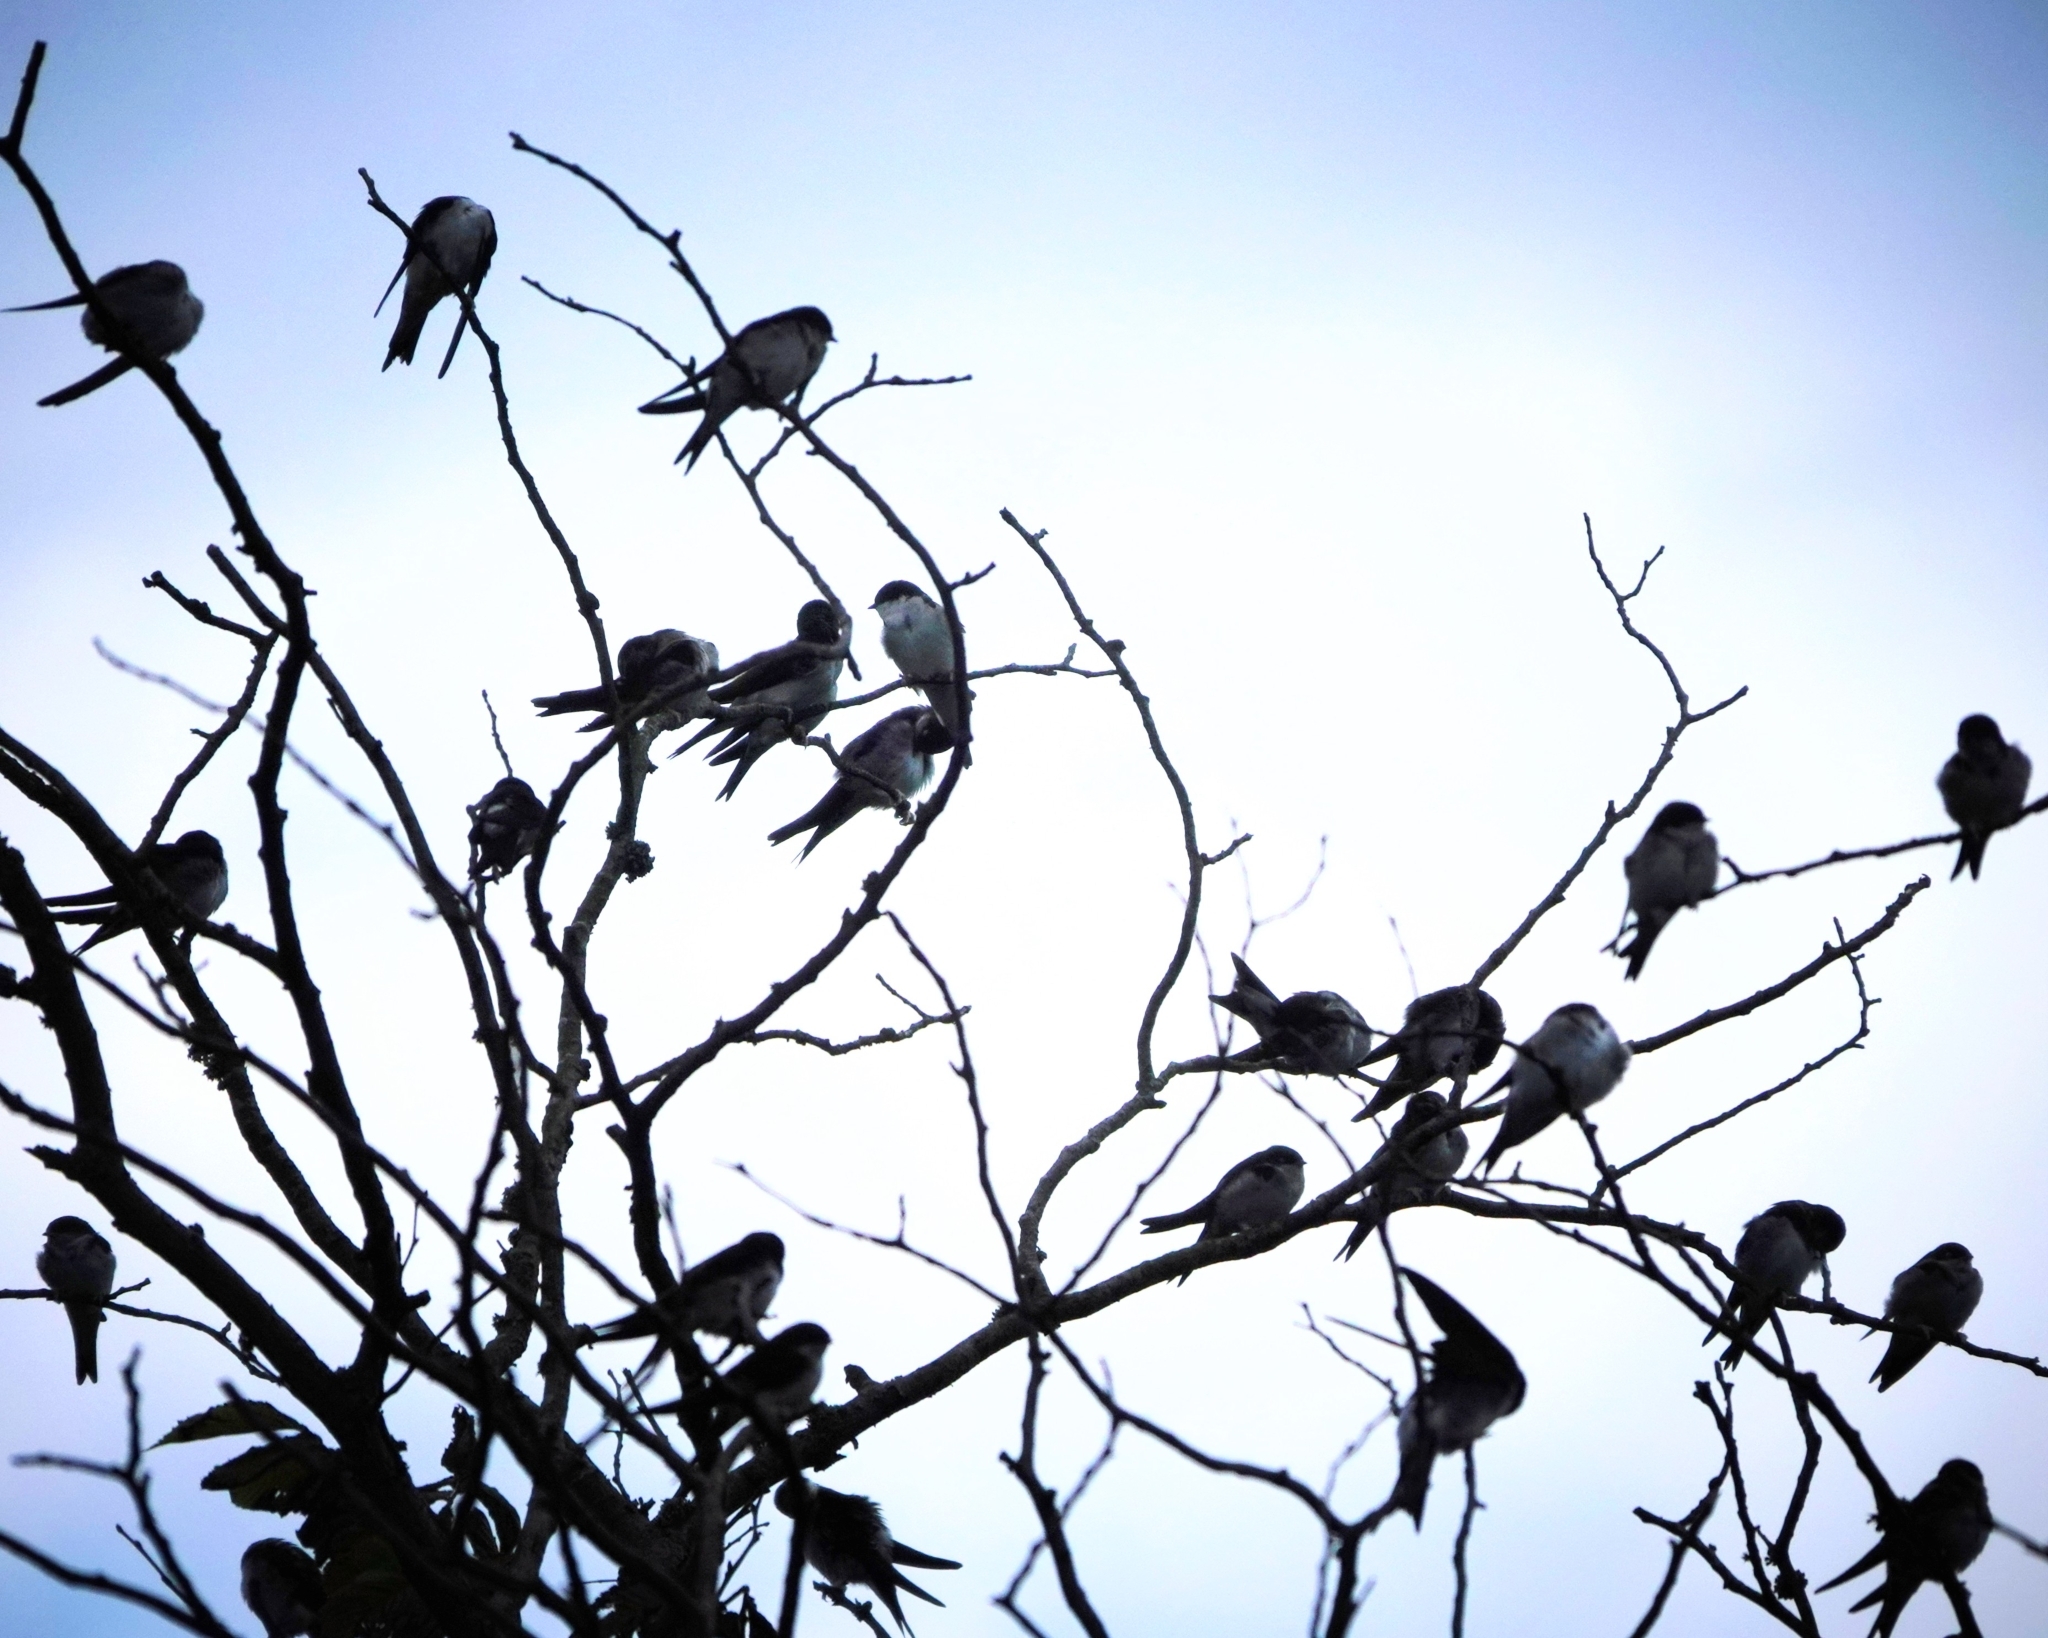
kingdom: Animalia
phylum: Chordata
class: Aves
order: Passeriformes
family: Hirundinidae
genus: Delichon
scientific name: Delichon urbicum
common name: Common house martin
